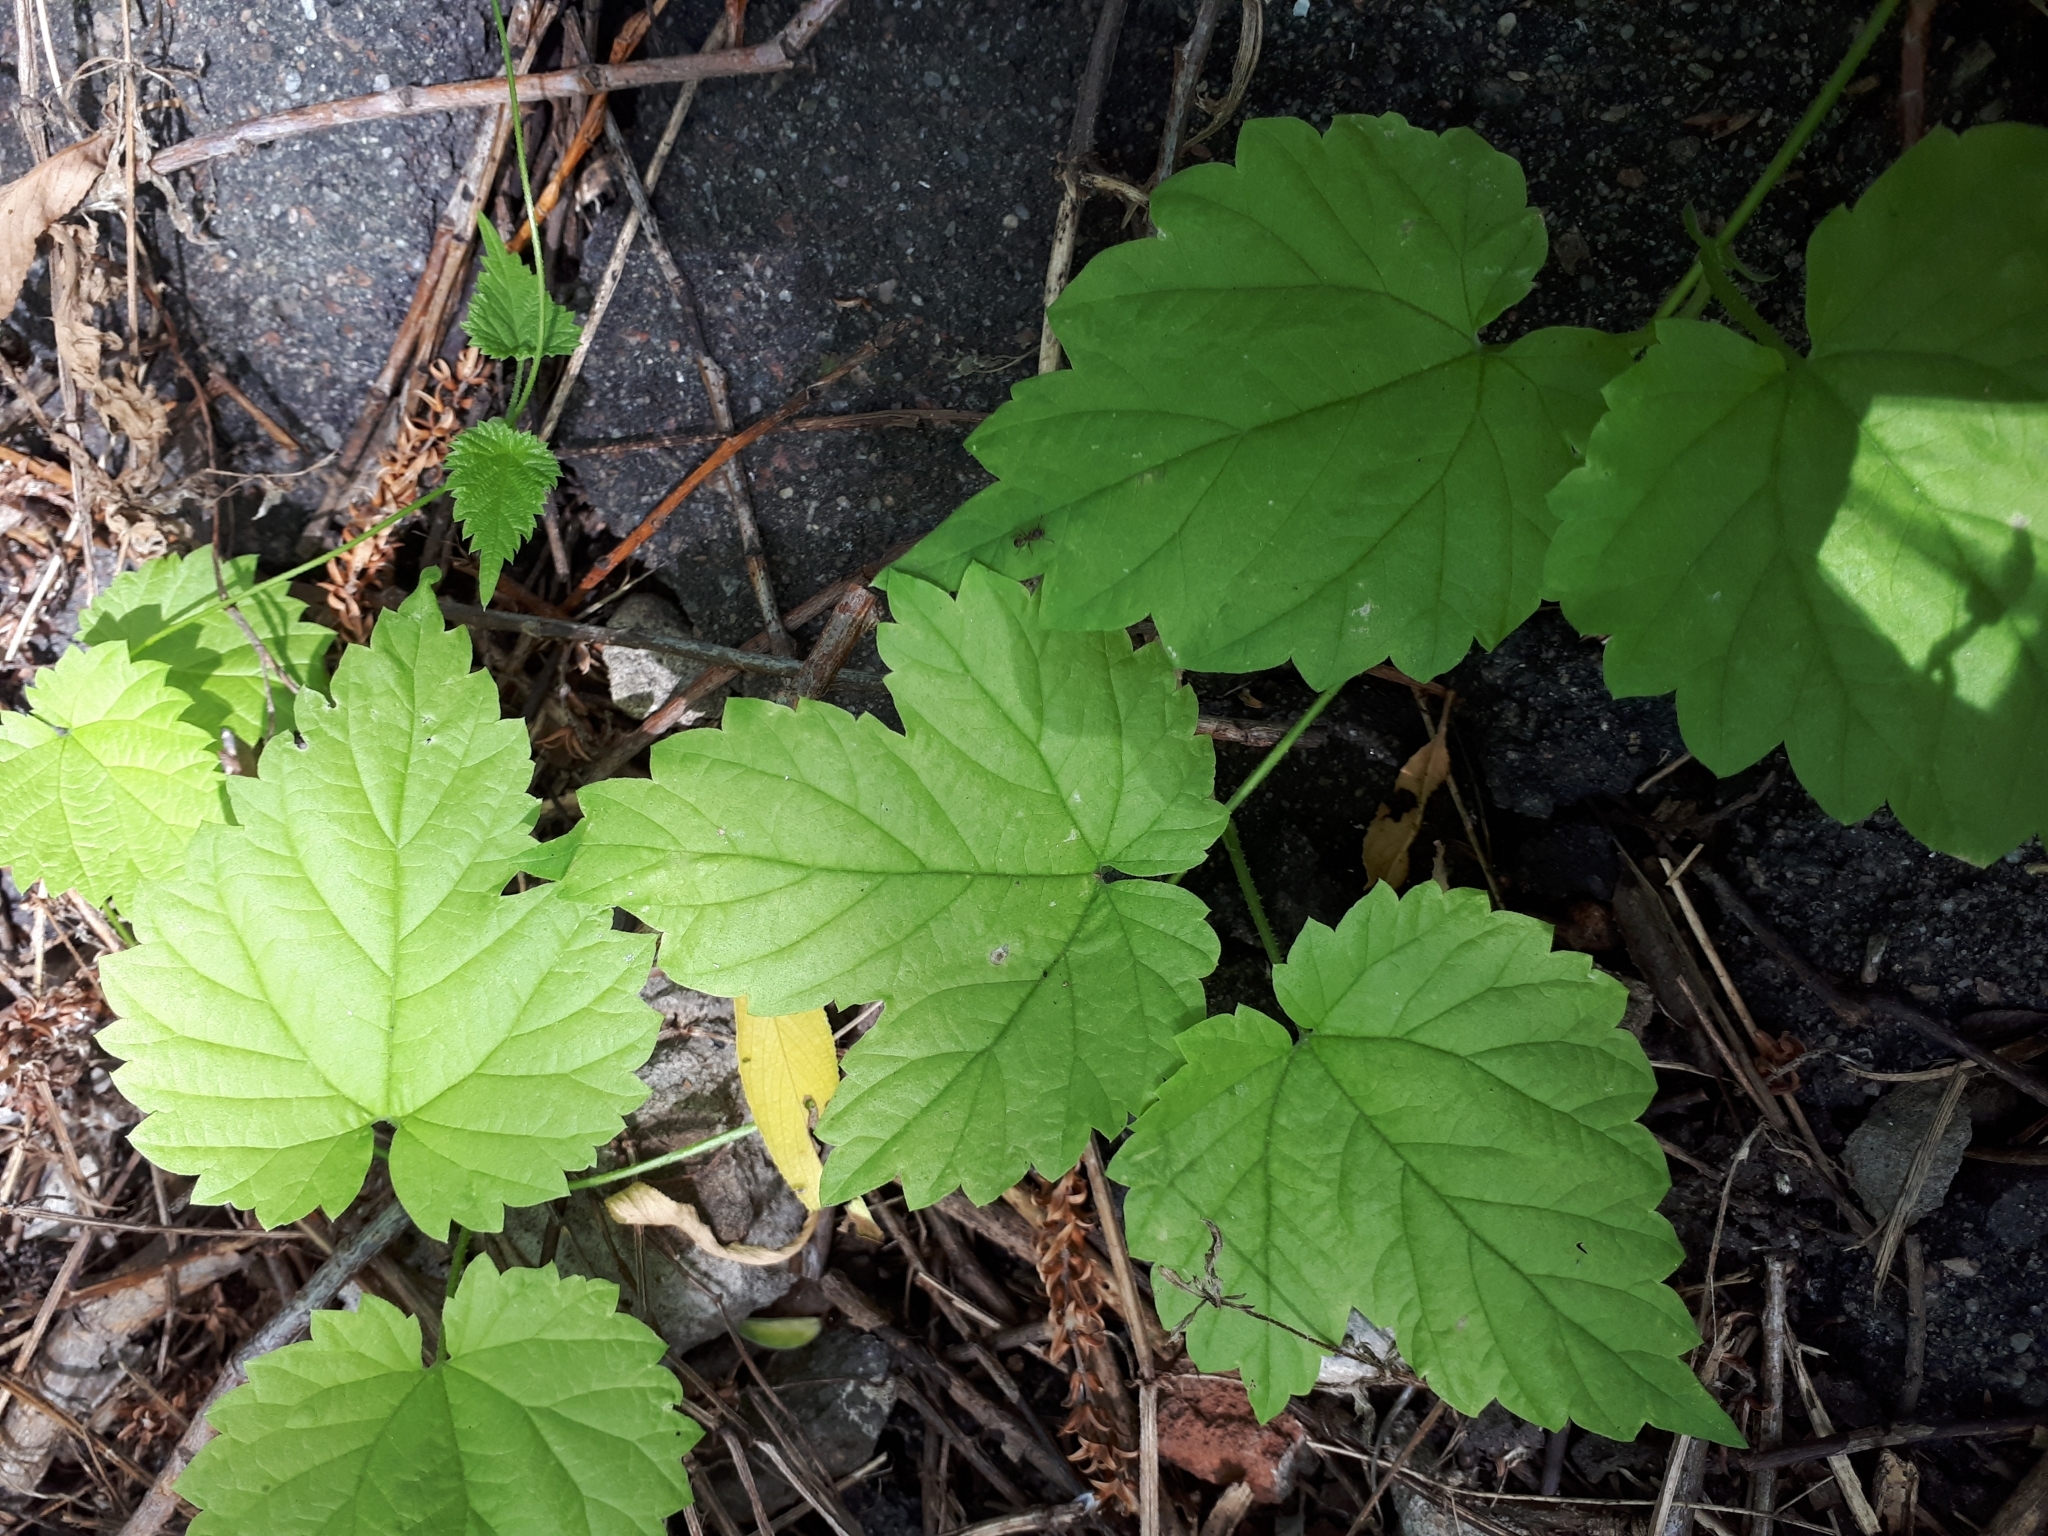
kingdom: Plantae
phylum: Tracheophyta
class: Magnoliopsida
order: Rosales
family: Cannabaceae
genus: Humulus
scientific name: Humulus lupulus
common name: Hop
